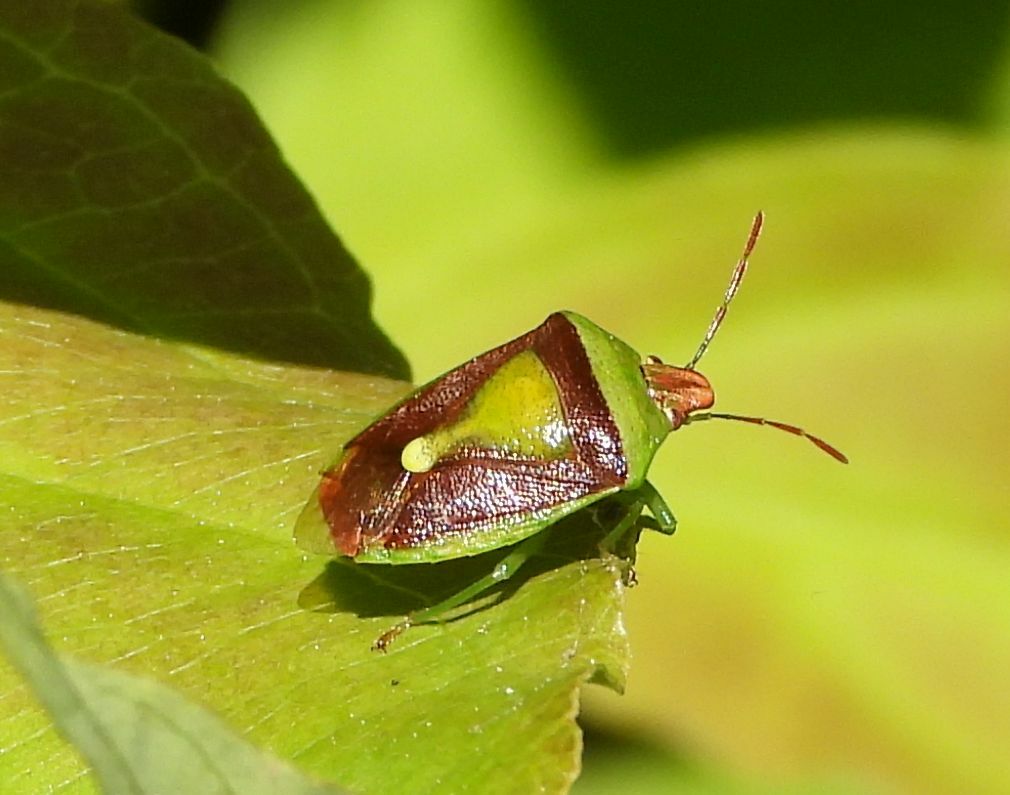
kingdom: Animalia
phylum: Arthropoda
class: Insecta
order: Hemiptera
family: Pentatomidae
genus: Banasa
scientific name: Banasa dimidiata
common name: Green burgundy stink bug
